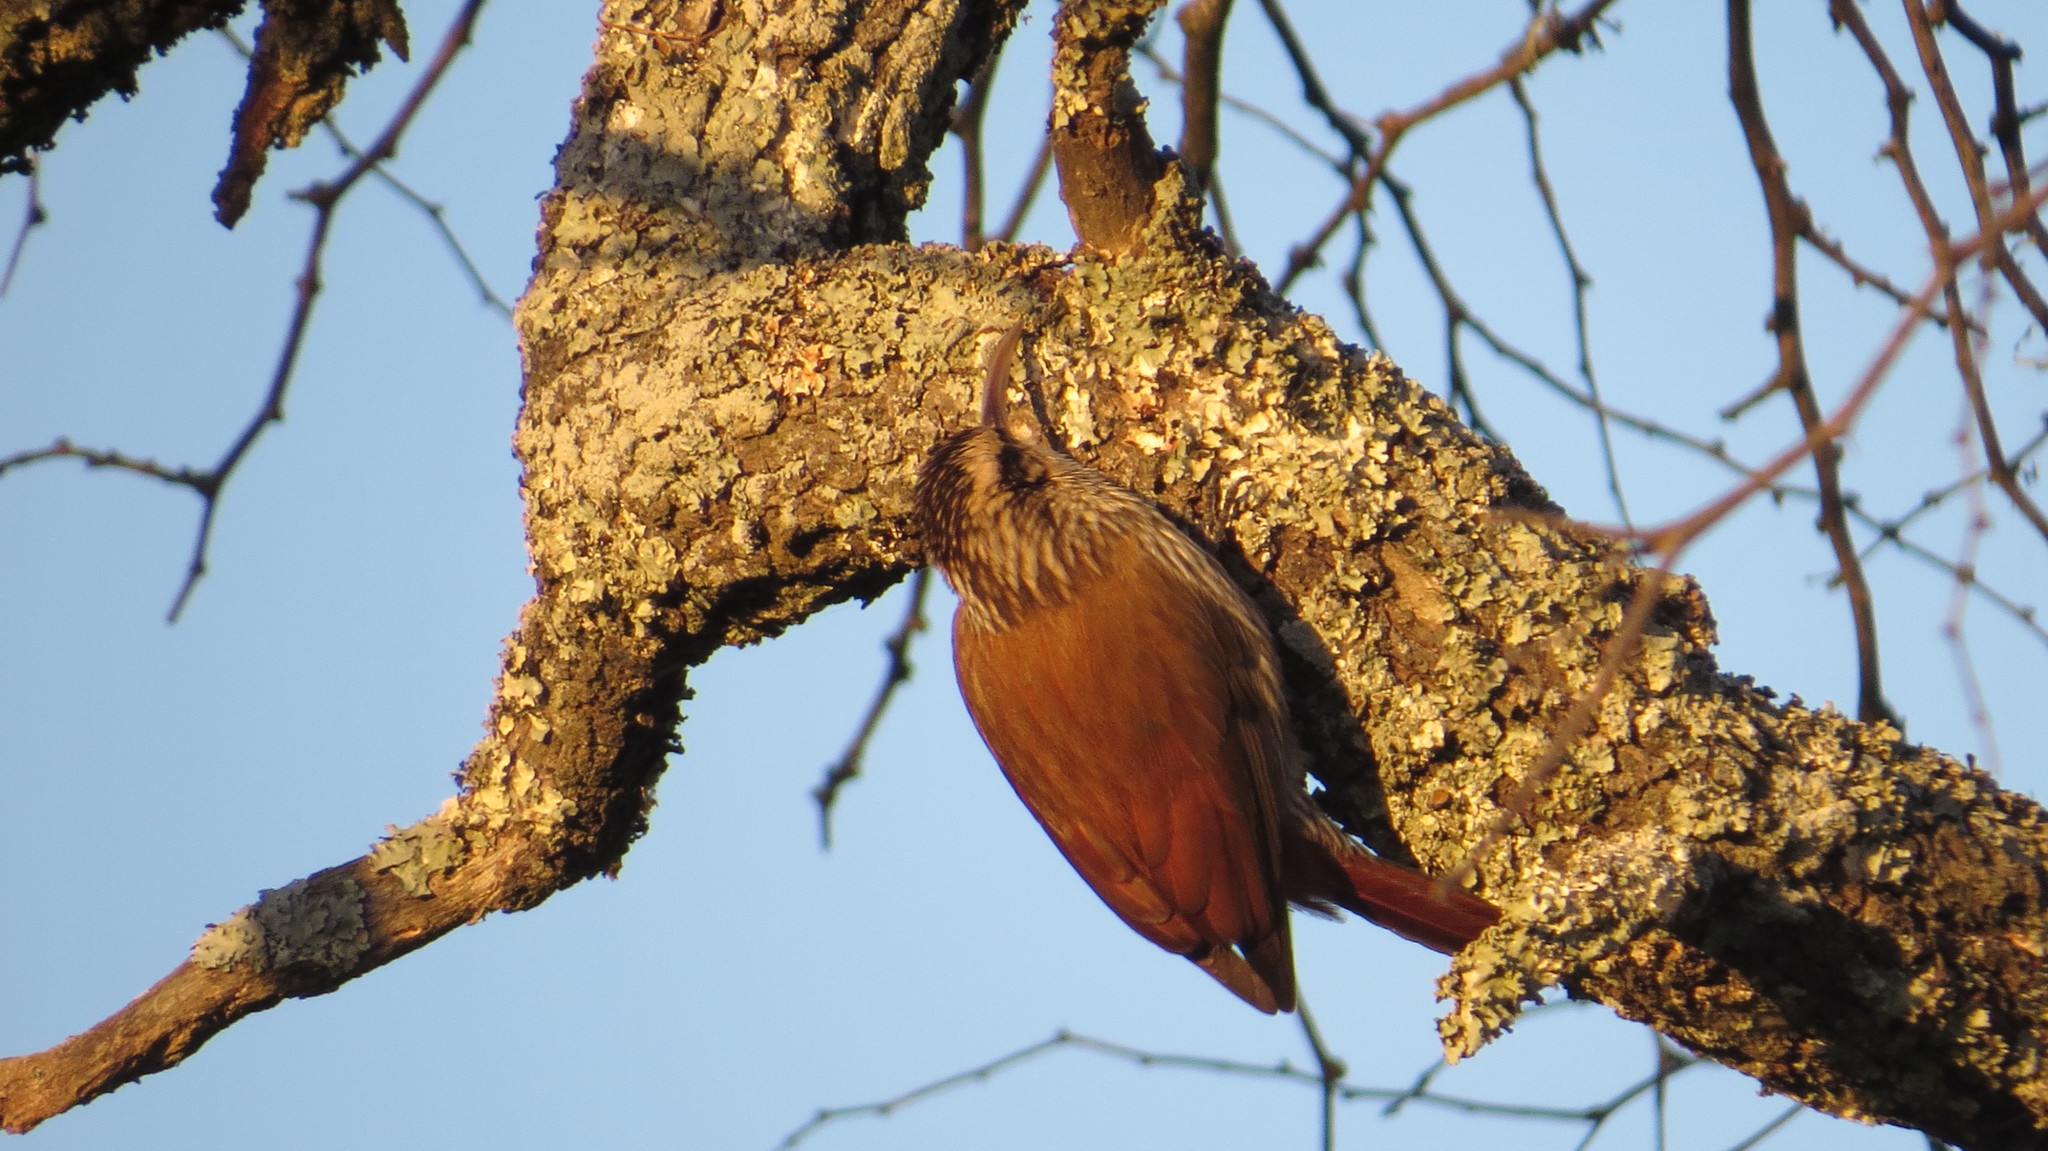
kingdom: Animalia
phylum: Chordata
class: Aves
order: Passeriformes
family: Furnariidae
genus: Lepidocolaptes
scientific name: Lepidocolaptes angustirostris
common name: Narrow-billed woodcreeper
